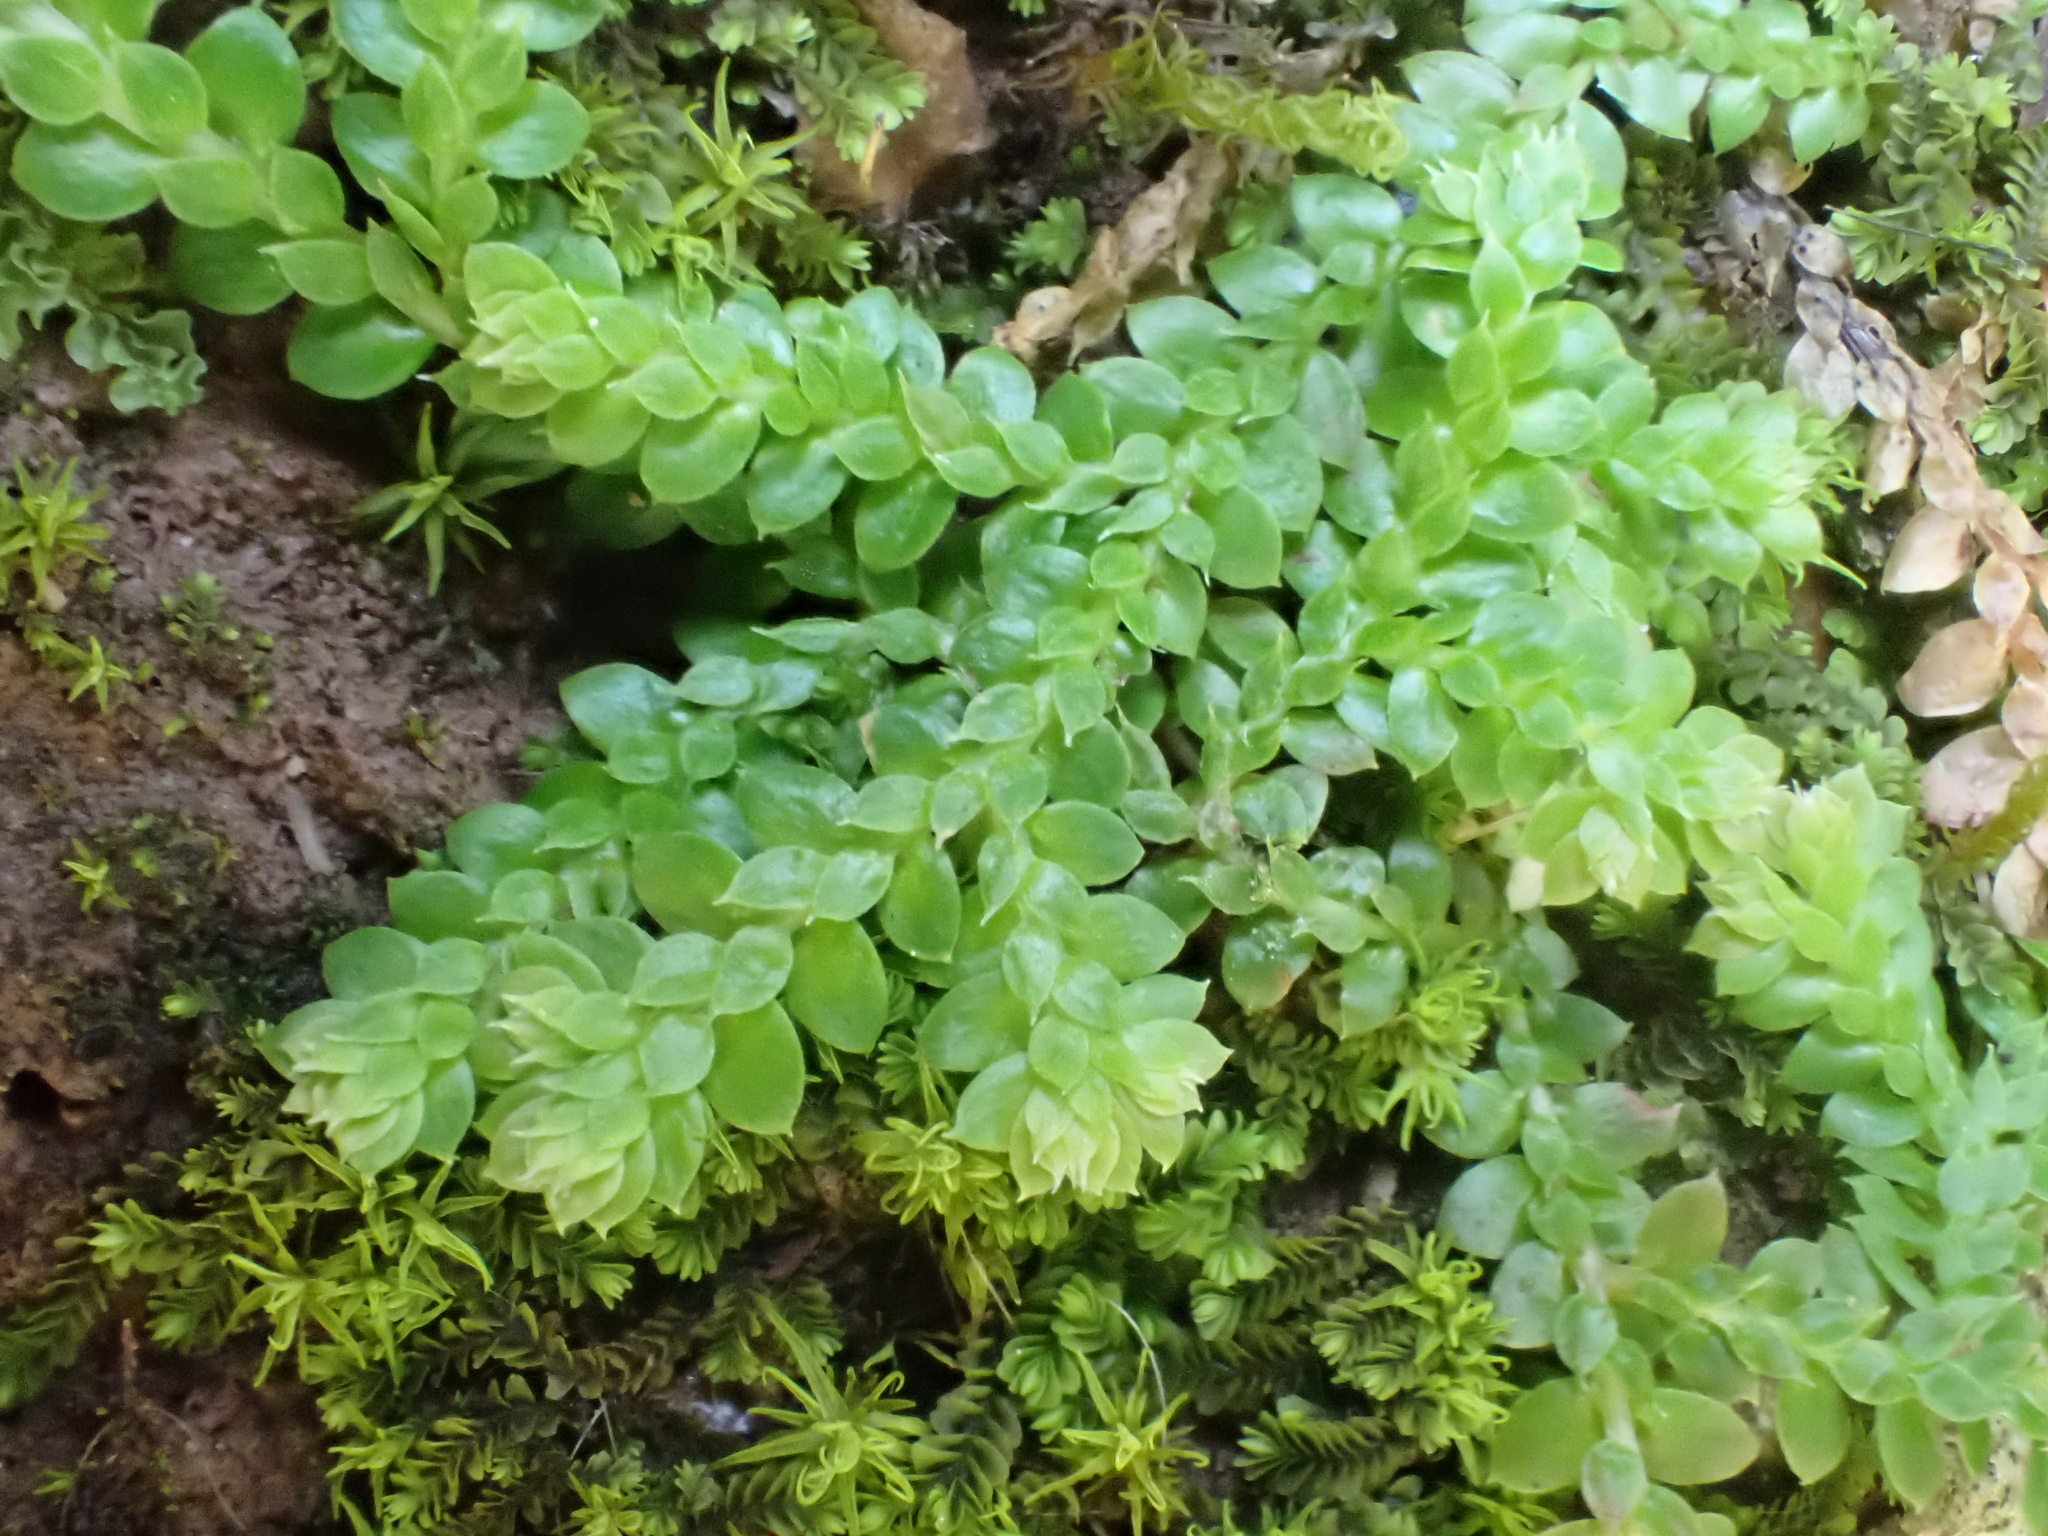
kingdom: Plantae
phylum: Tracheophyta
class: Lycopodiopsida
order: Selaginellales
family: Selaginellaceae
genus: Selaginella
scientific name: Selaginella denticulata
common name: Toothed-leaved clubmoss
